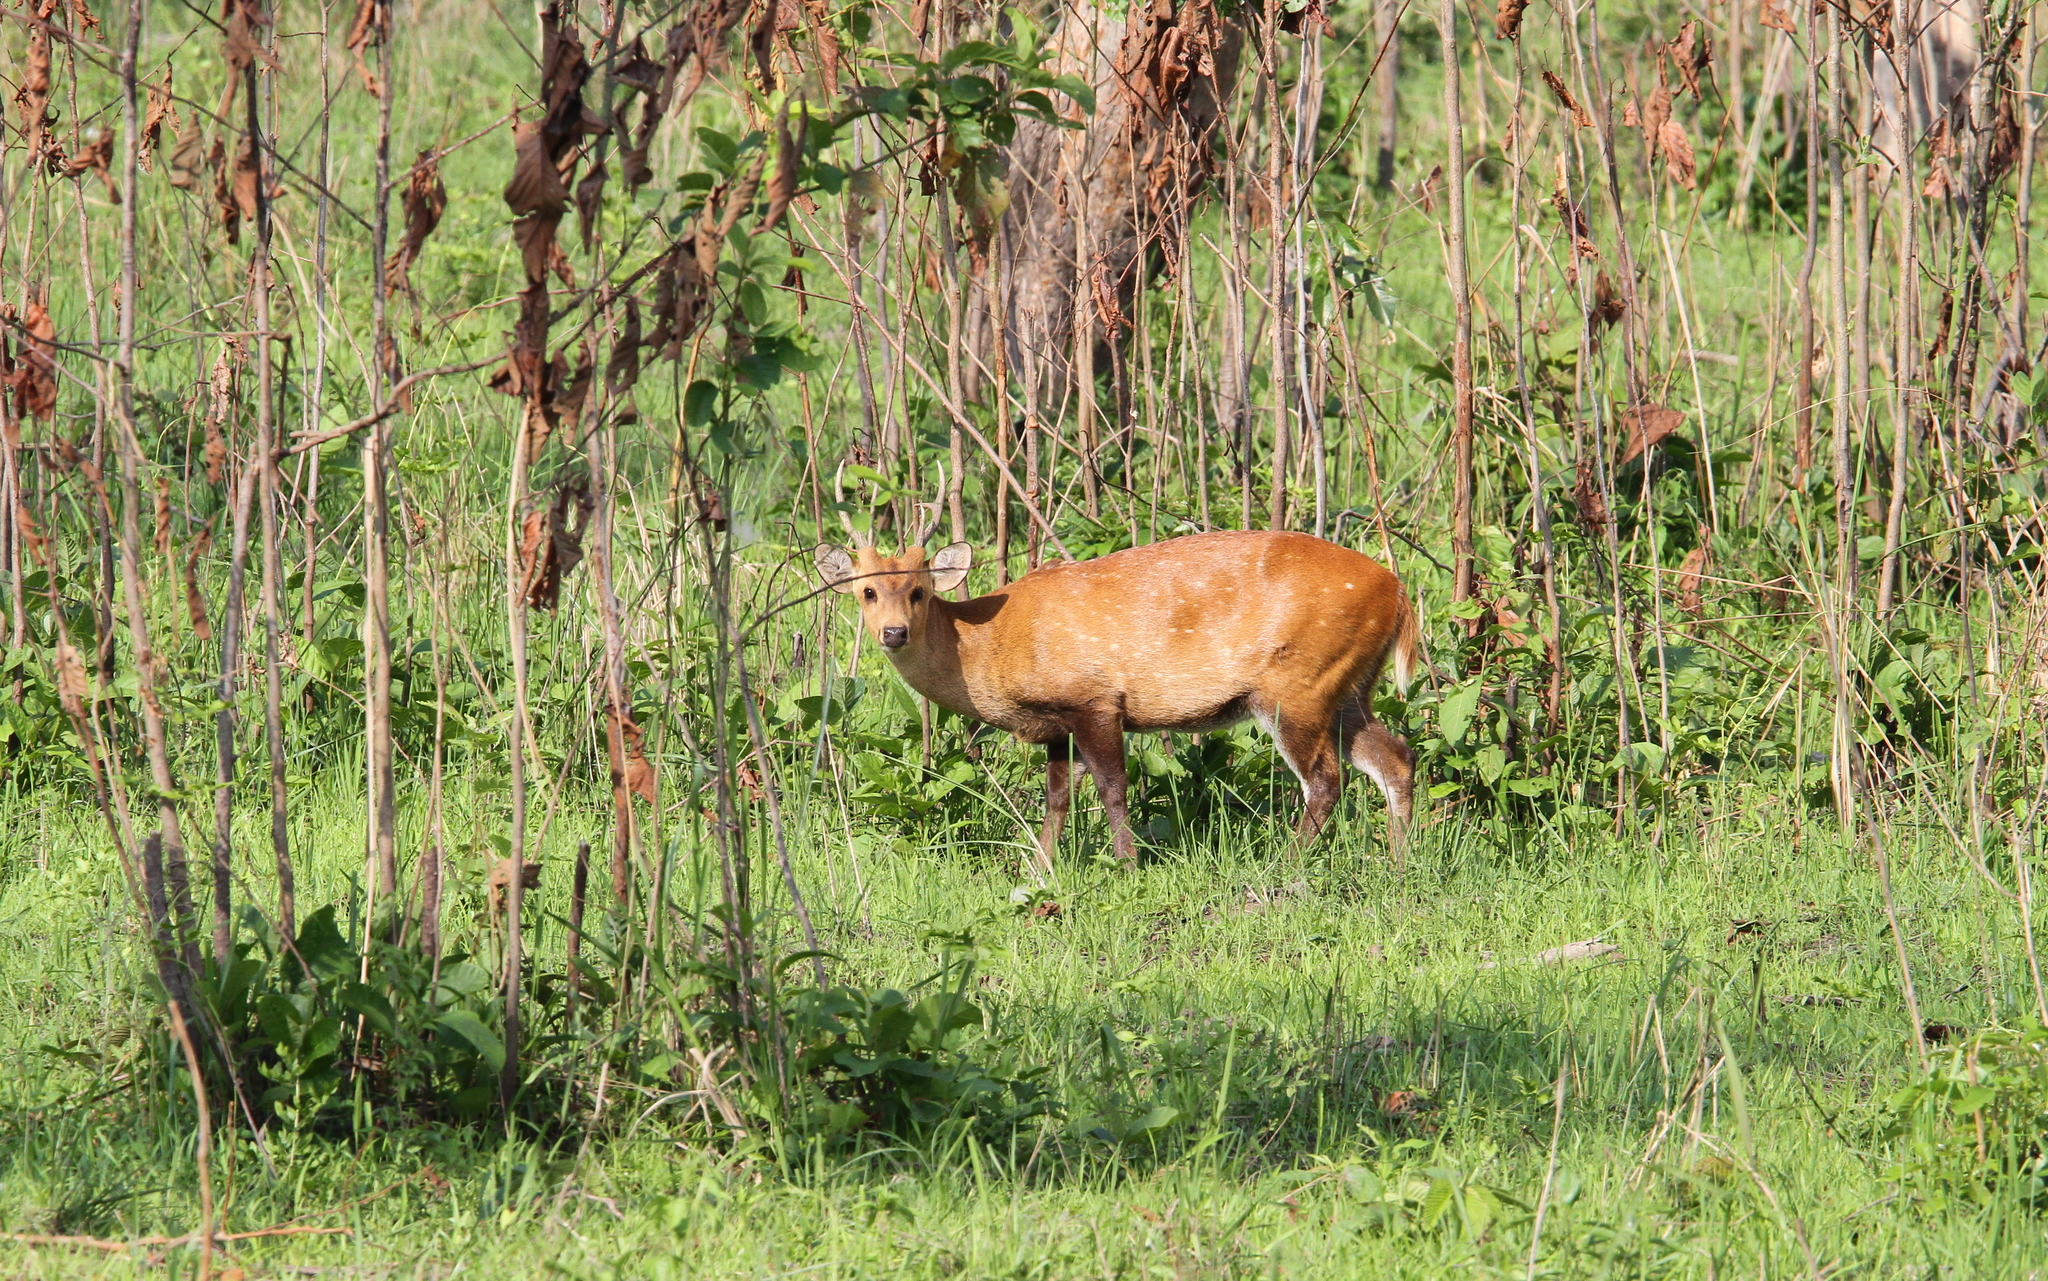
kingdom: Animalia
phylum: Chordata
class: Mammalia
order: Artiodactyla
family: Cervidae
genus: Axis
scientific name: Axis porcinus
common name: Hog deer
